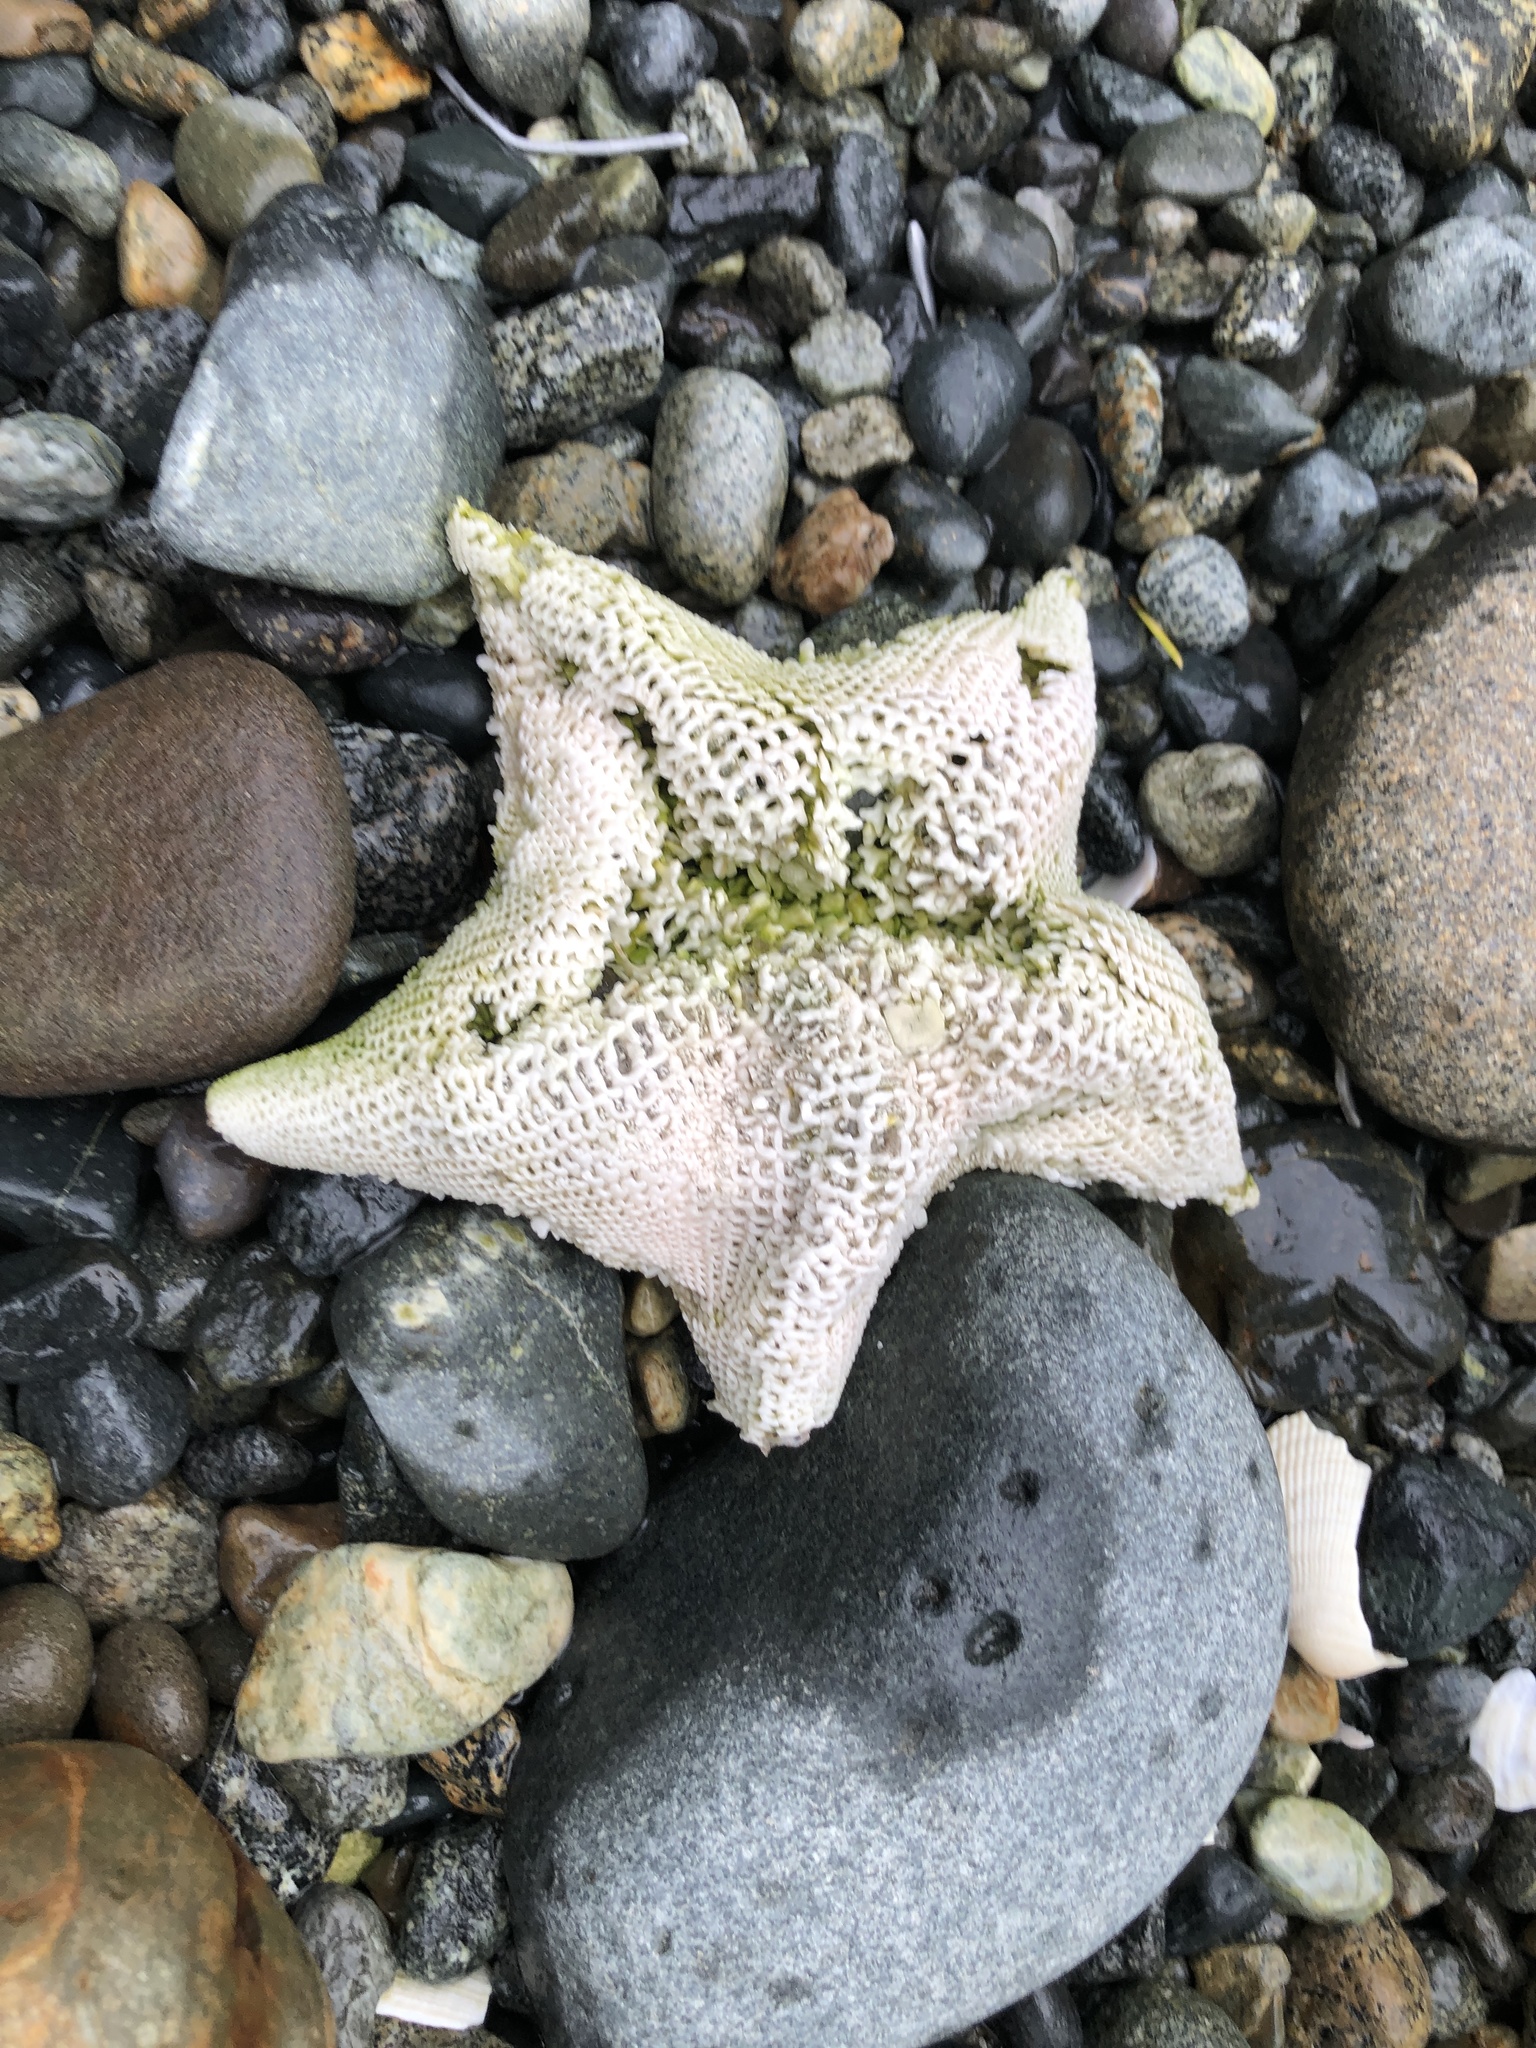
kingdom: Animalia
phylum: Echinodermata
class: Asteroidea
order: Valvatida
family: Asterinidae
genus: Patiria
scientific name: Patiria miniata
